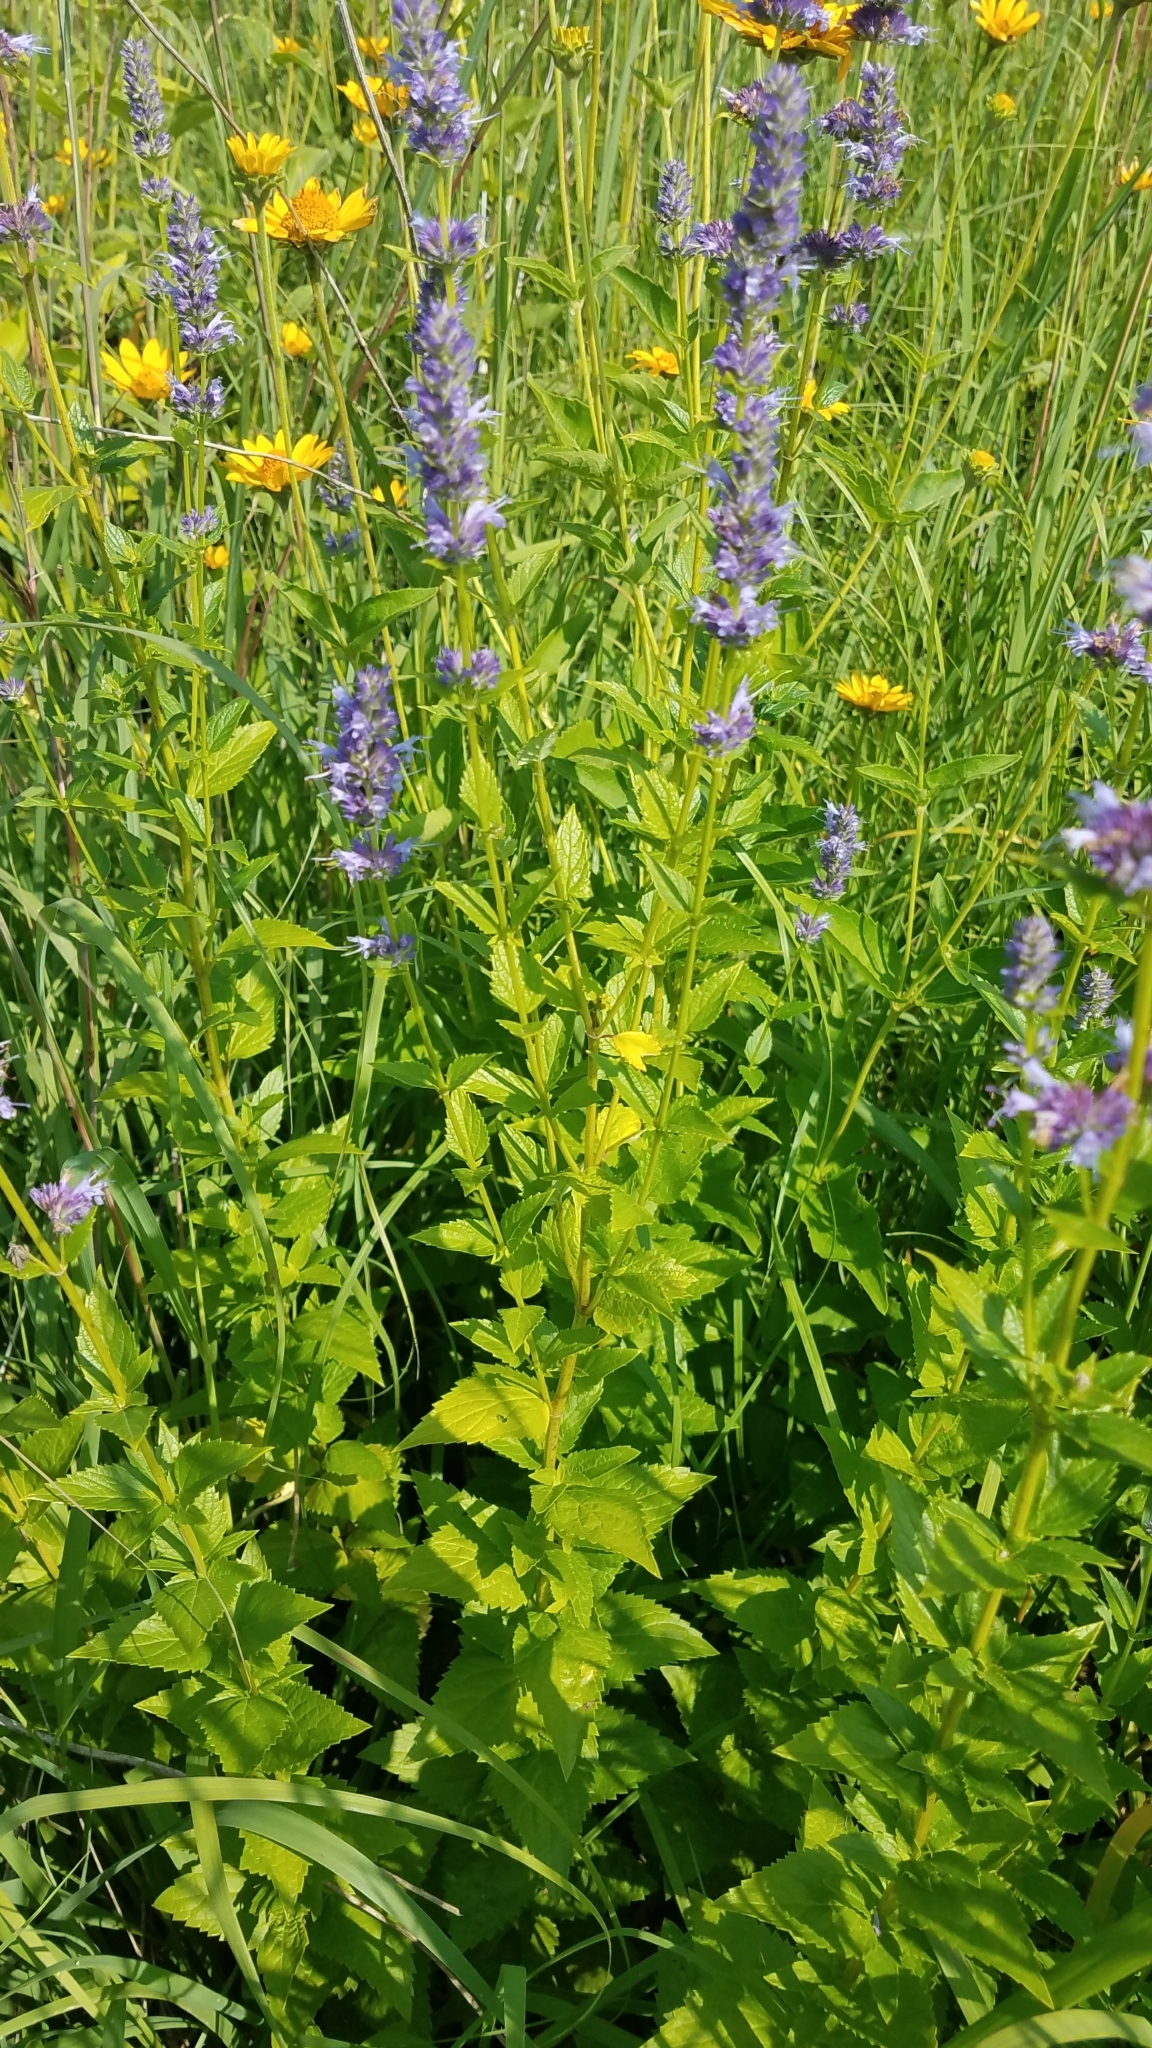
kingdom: Plantae
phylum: Tracheophyta
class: Magnoliopsida
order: Lamiales
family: Lamiaceae
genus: Agastache
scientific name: Agastache foeniculum
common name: Anise hyssop
